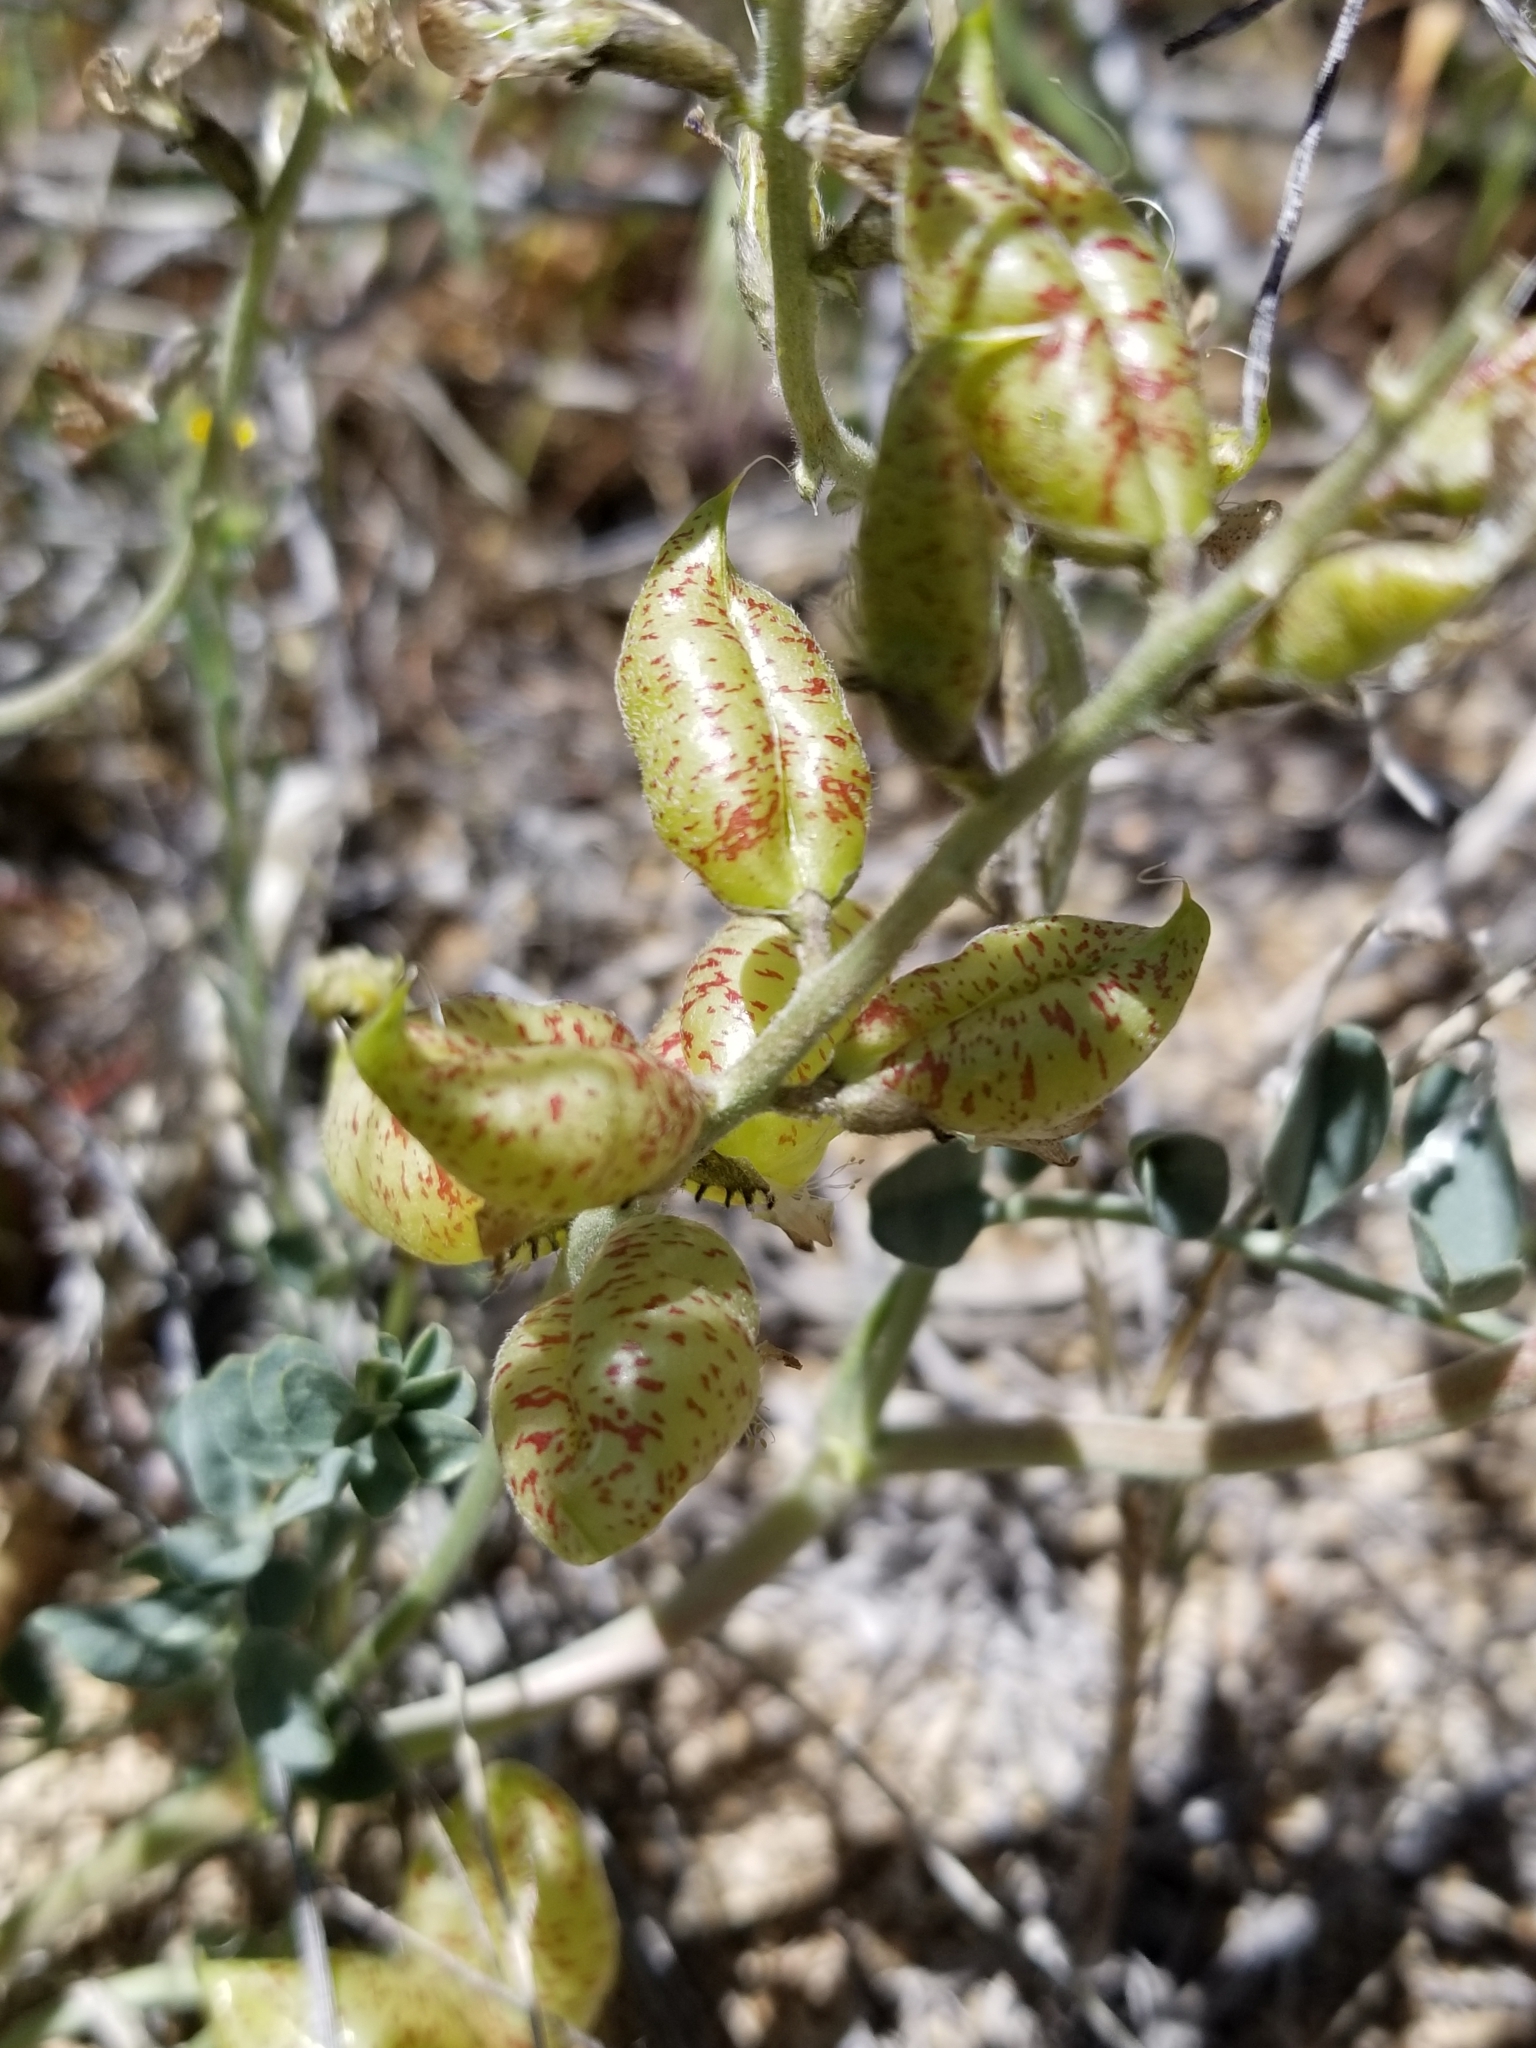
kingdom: Plantae
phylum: Tracheophyta
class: Magnoliopsida
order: Fabales
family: Fabaceae
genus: Astragalus
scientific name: Astragalus lentiginosus
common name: Freckled milkvetch
